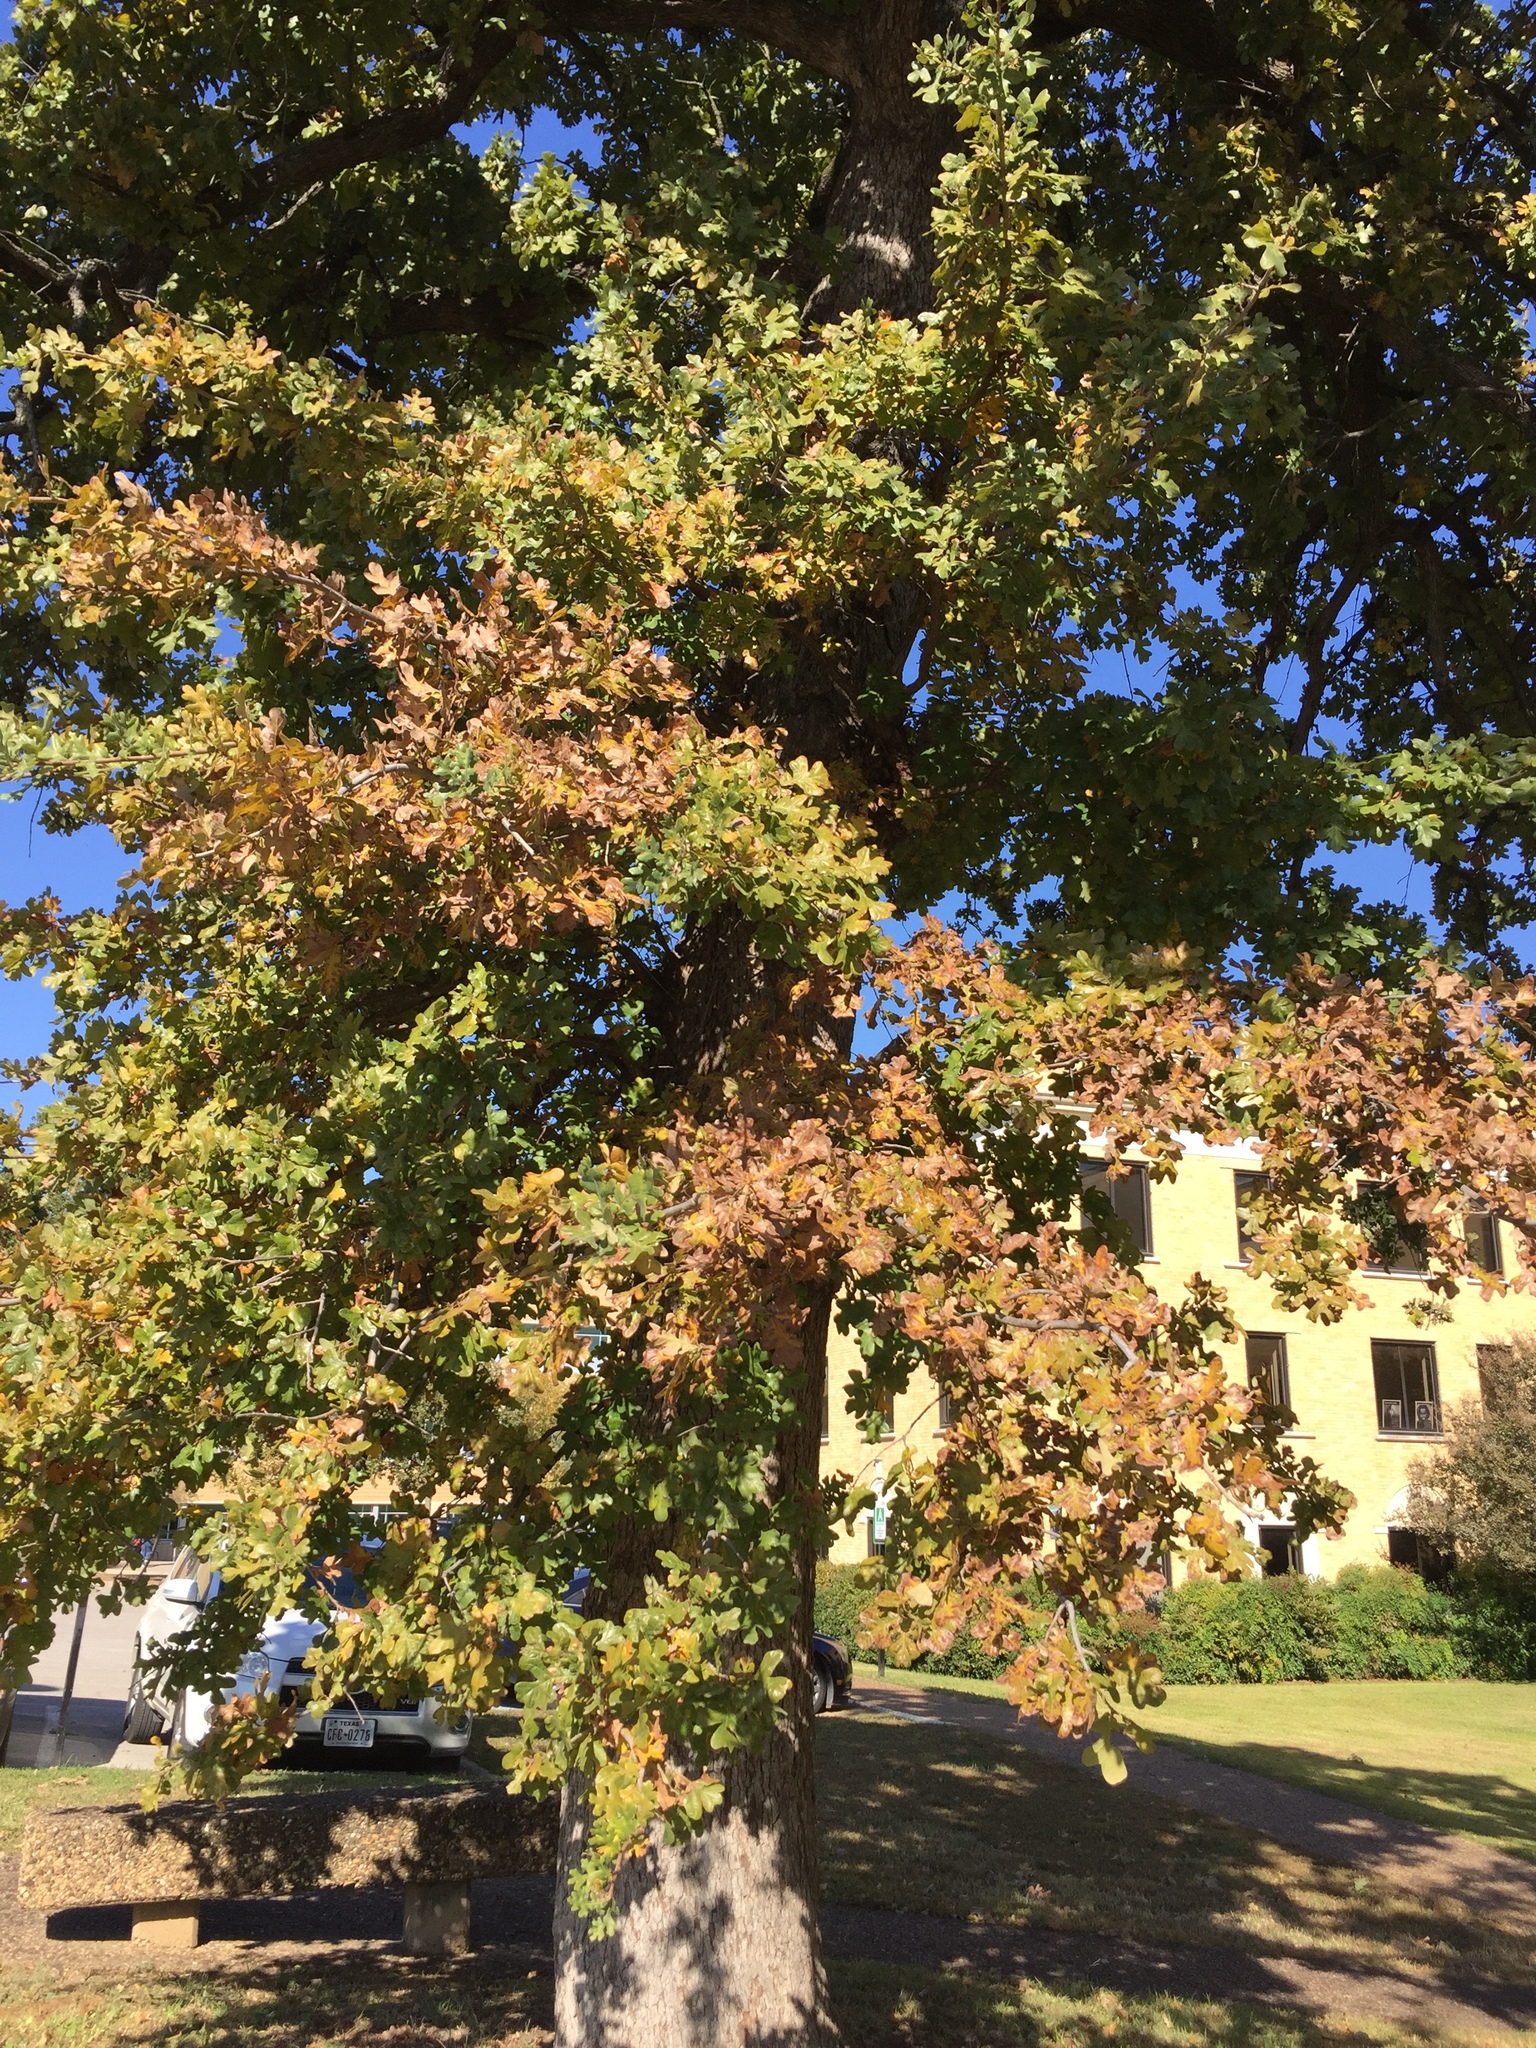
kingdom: Plantae
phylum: Tracheophyta
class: Magnoliopsida
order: Fagales
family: Fagaceae
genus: Quercus
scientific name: Quercus stellata
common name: Post oak
